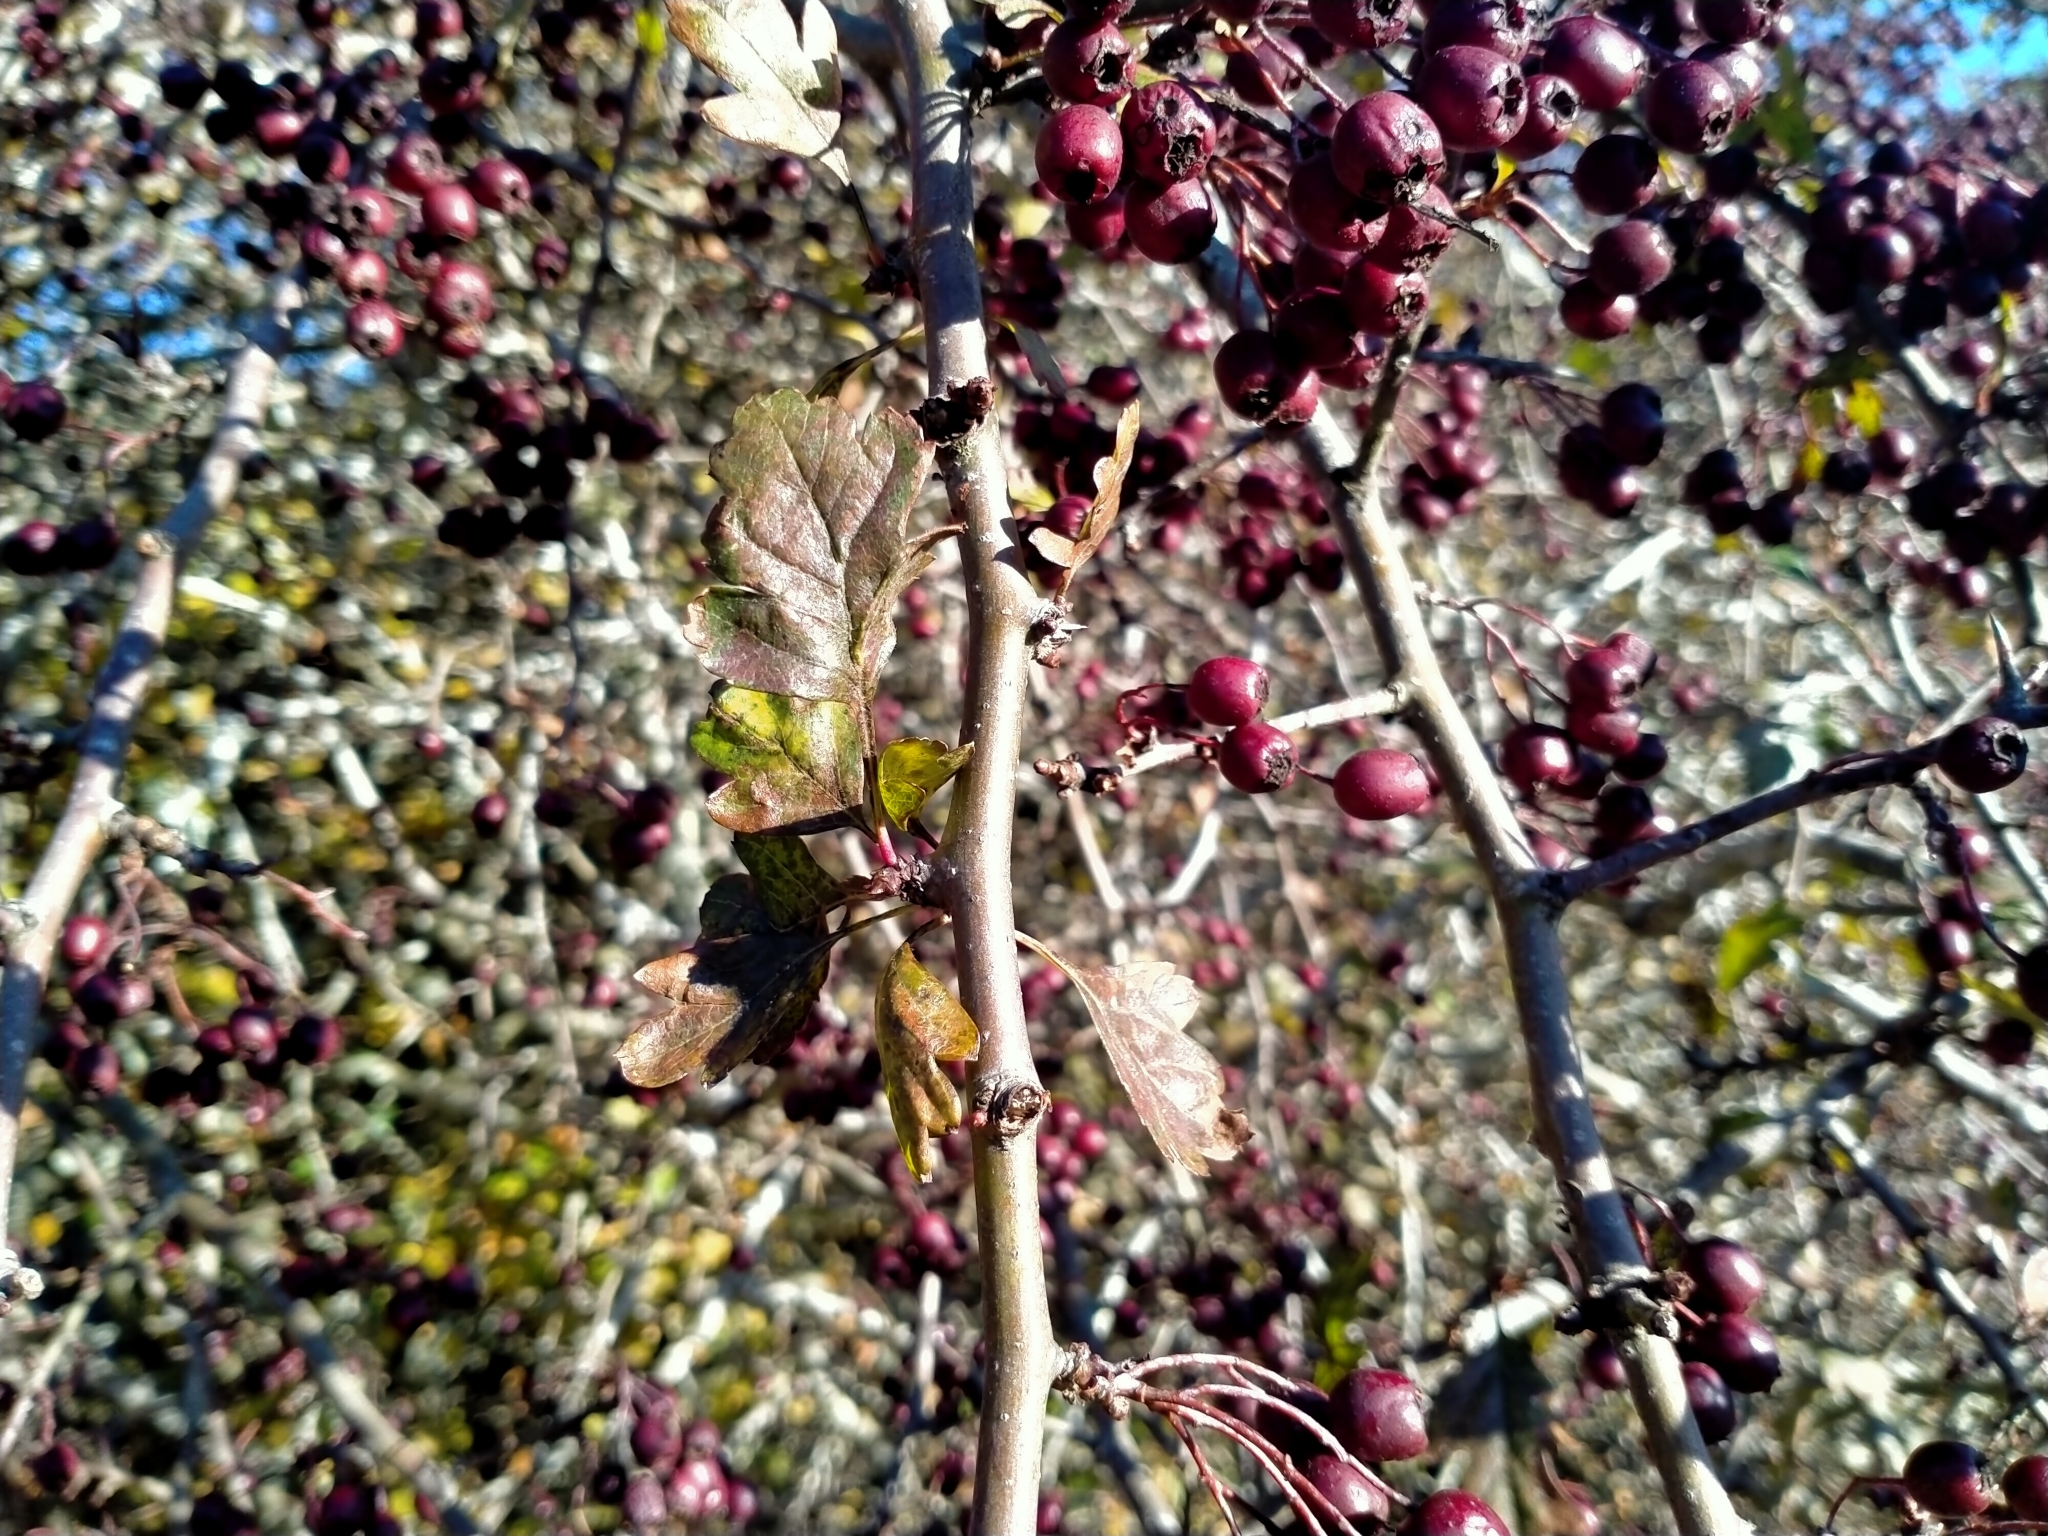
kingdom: Plantae
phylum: Tracheophyta
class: Magnoliopsida
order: Rosales
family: Rosaceae
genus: Crataegus
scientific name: Crataegus monogyna
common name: Hawthorn
